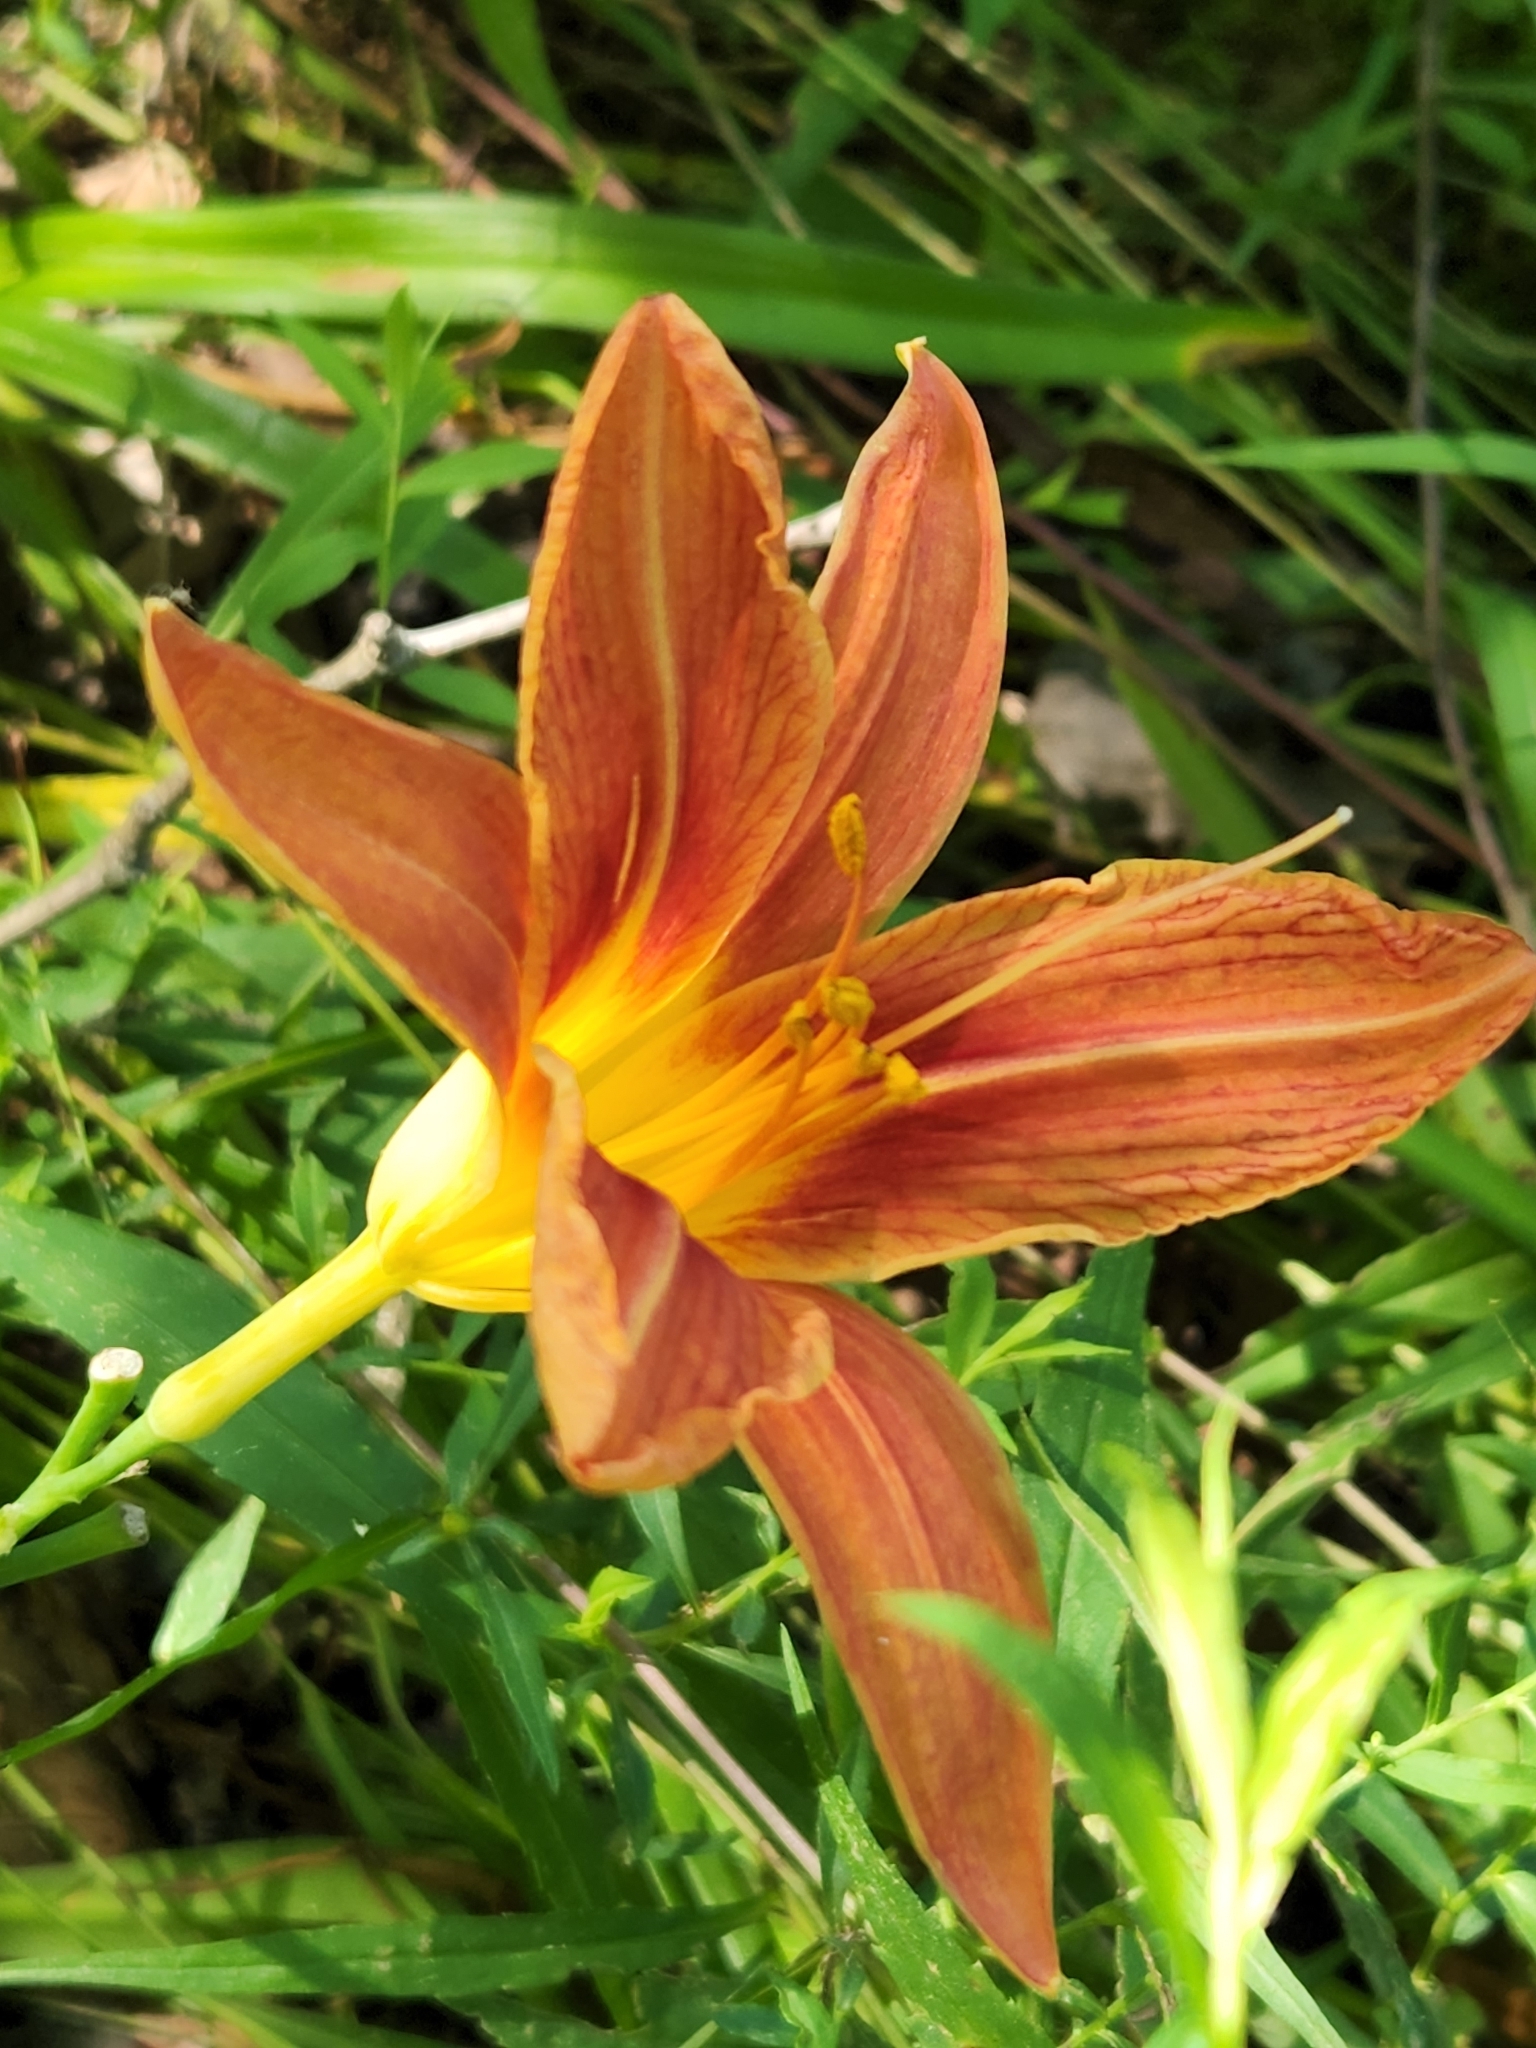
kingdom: Plantae
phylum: Tracheophyta
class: Liliopsida
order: Asparagales
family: Asphodelaceae
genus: Hemerocallis
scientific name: Hemerocallis fulva
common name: Orange day-lily
